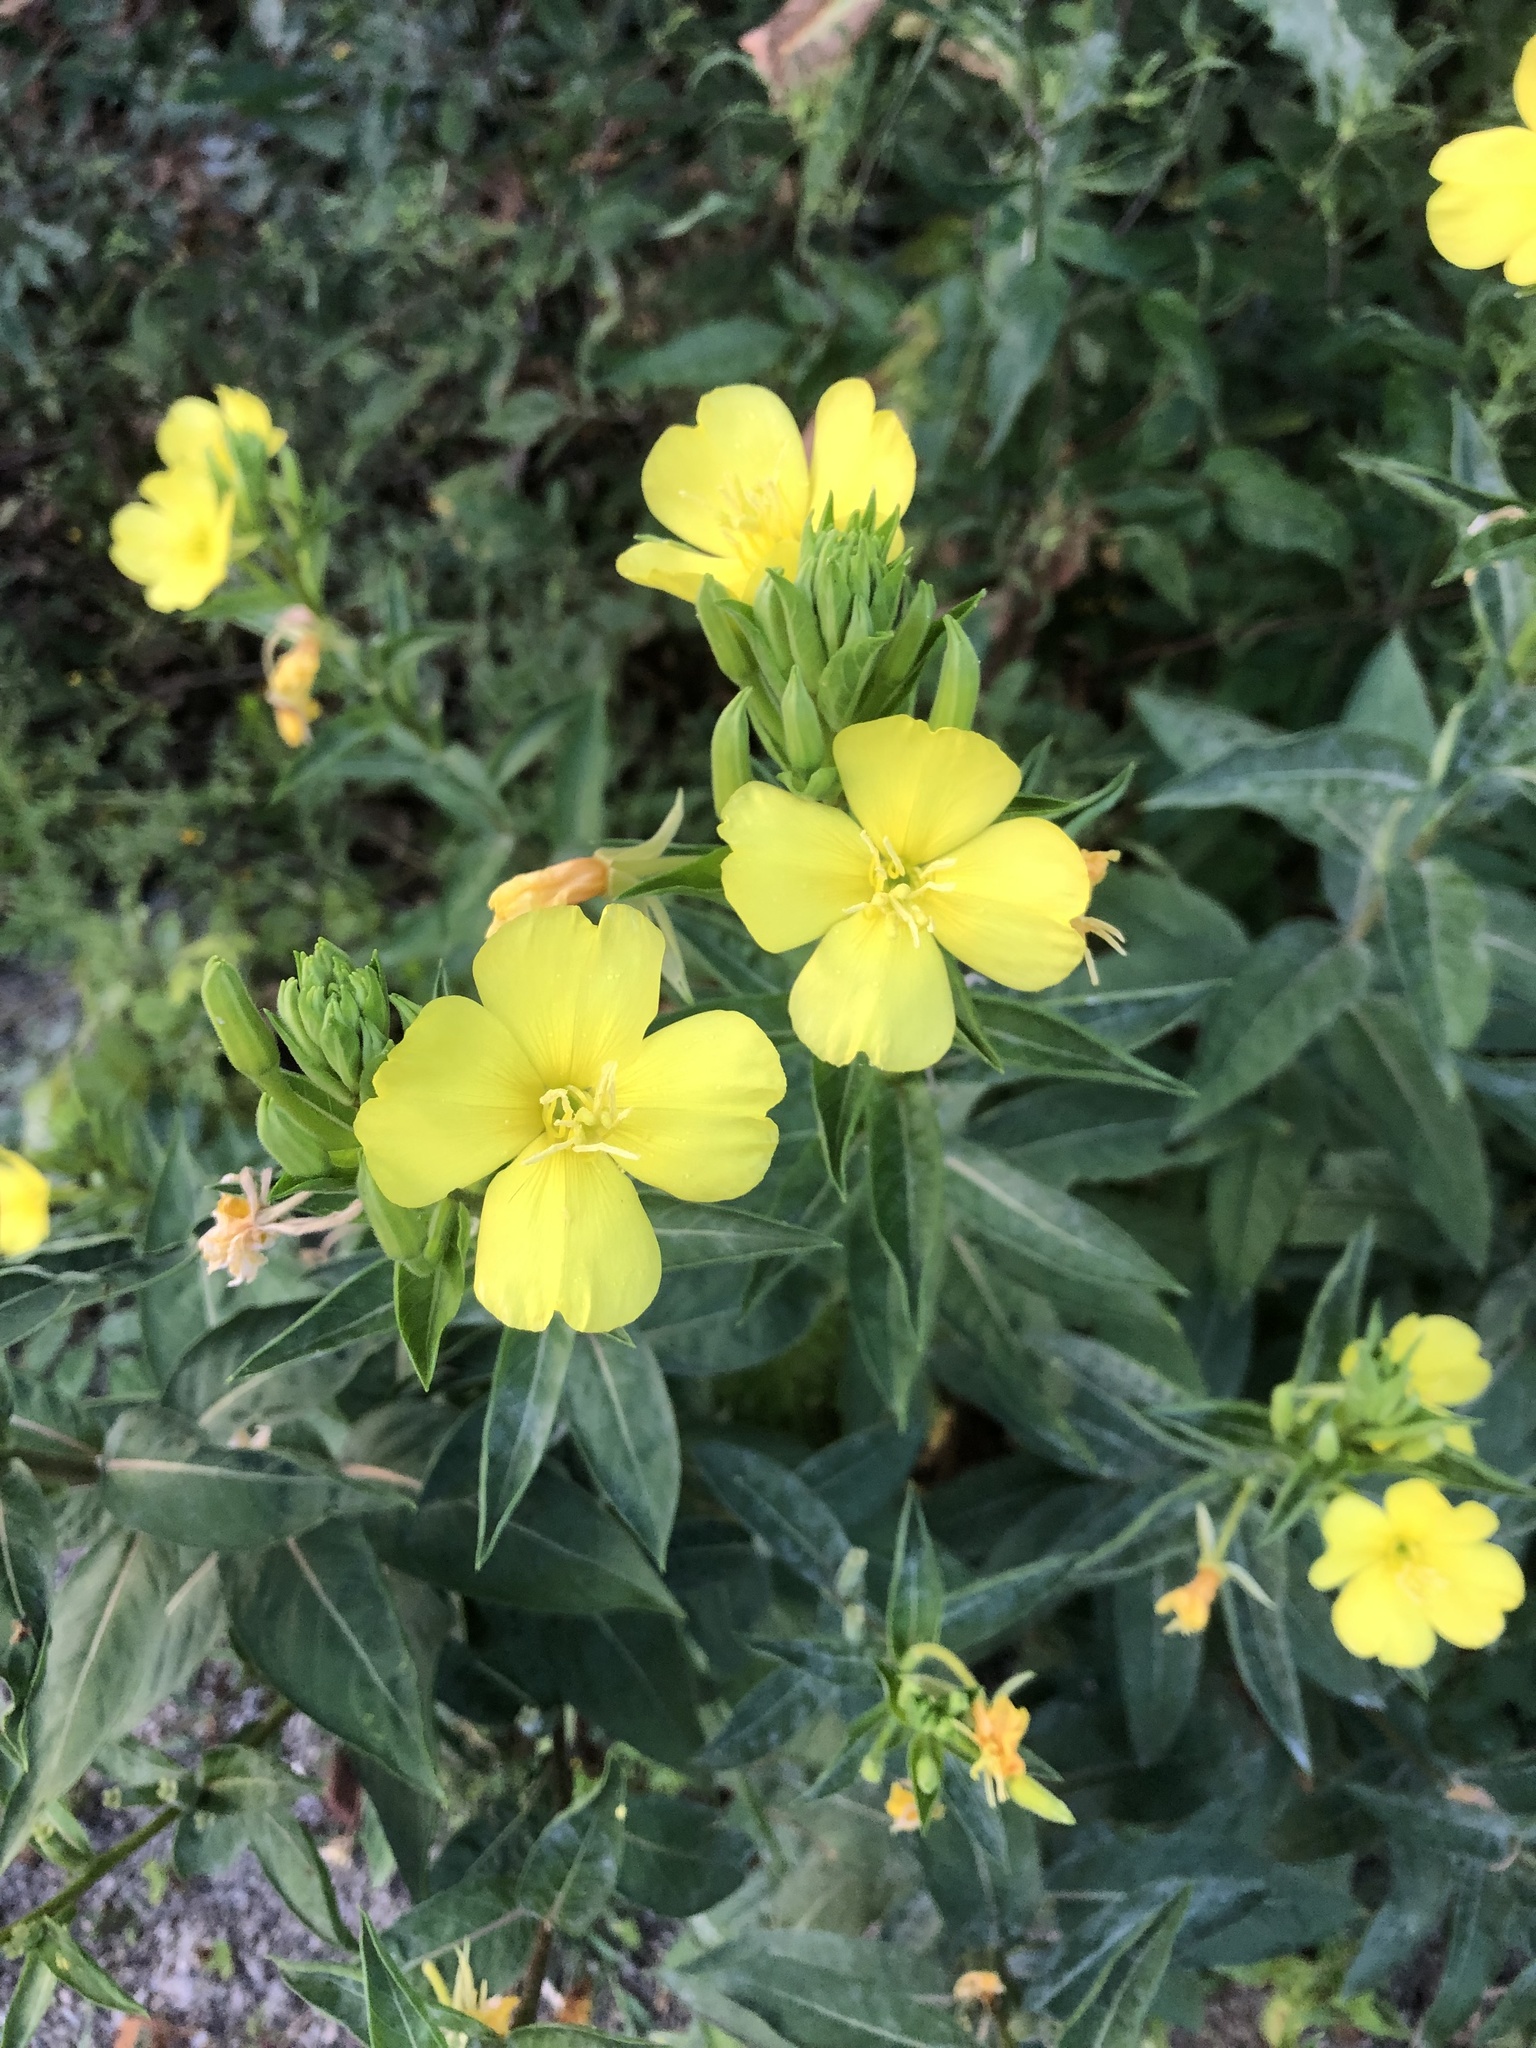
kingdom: Plantae
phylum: Tracheophyta
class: Magnoliopsida
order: Myrtales
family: Onagraceae
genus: Oenothera
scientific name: Oenothera biennis
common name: Common evening-primrose
